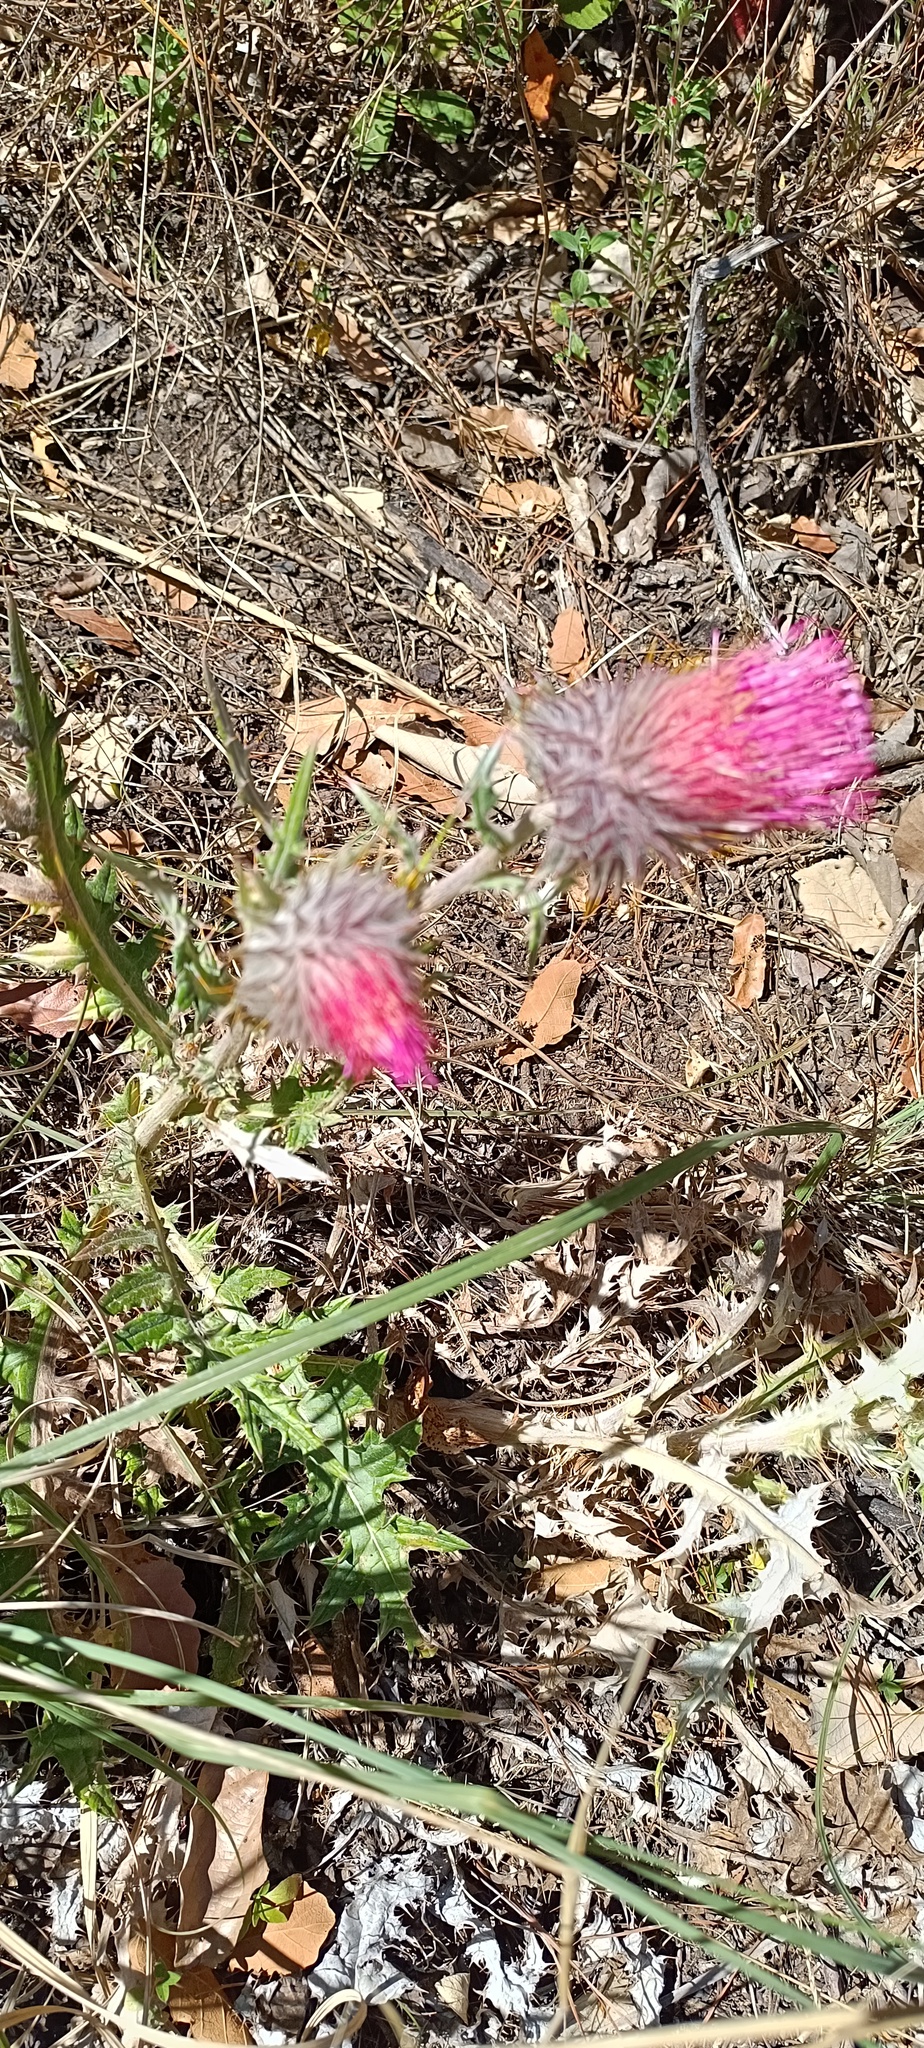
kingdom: Plantae
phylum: Tracheophyta
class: Magnoliopsida
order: Asterales
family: Asteraceae
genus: Cirsium
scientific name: Cirsium subcoriaceum
